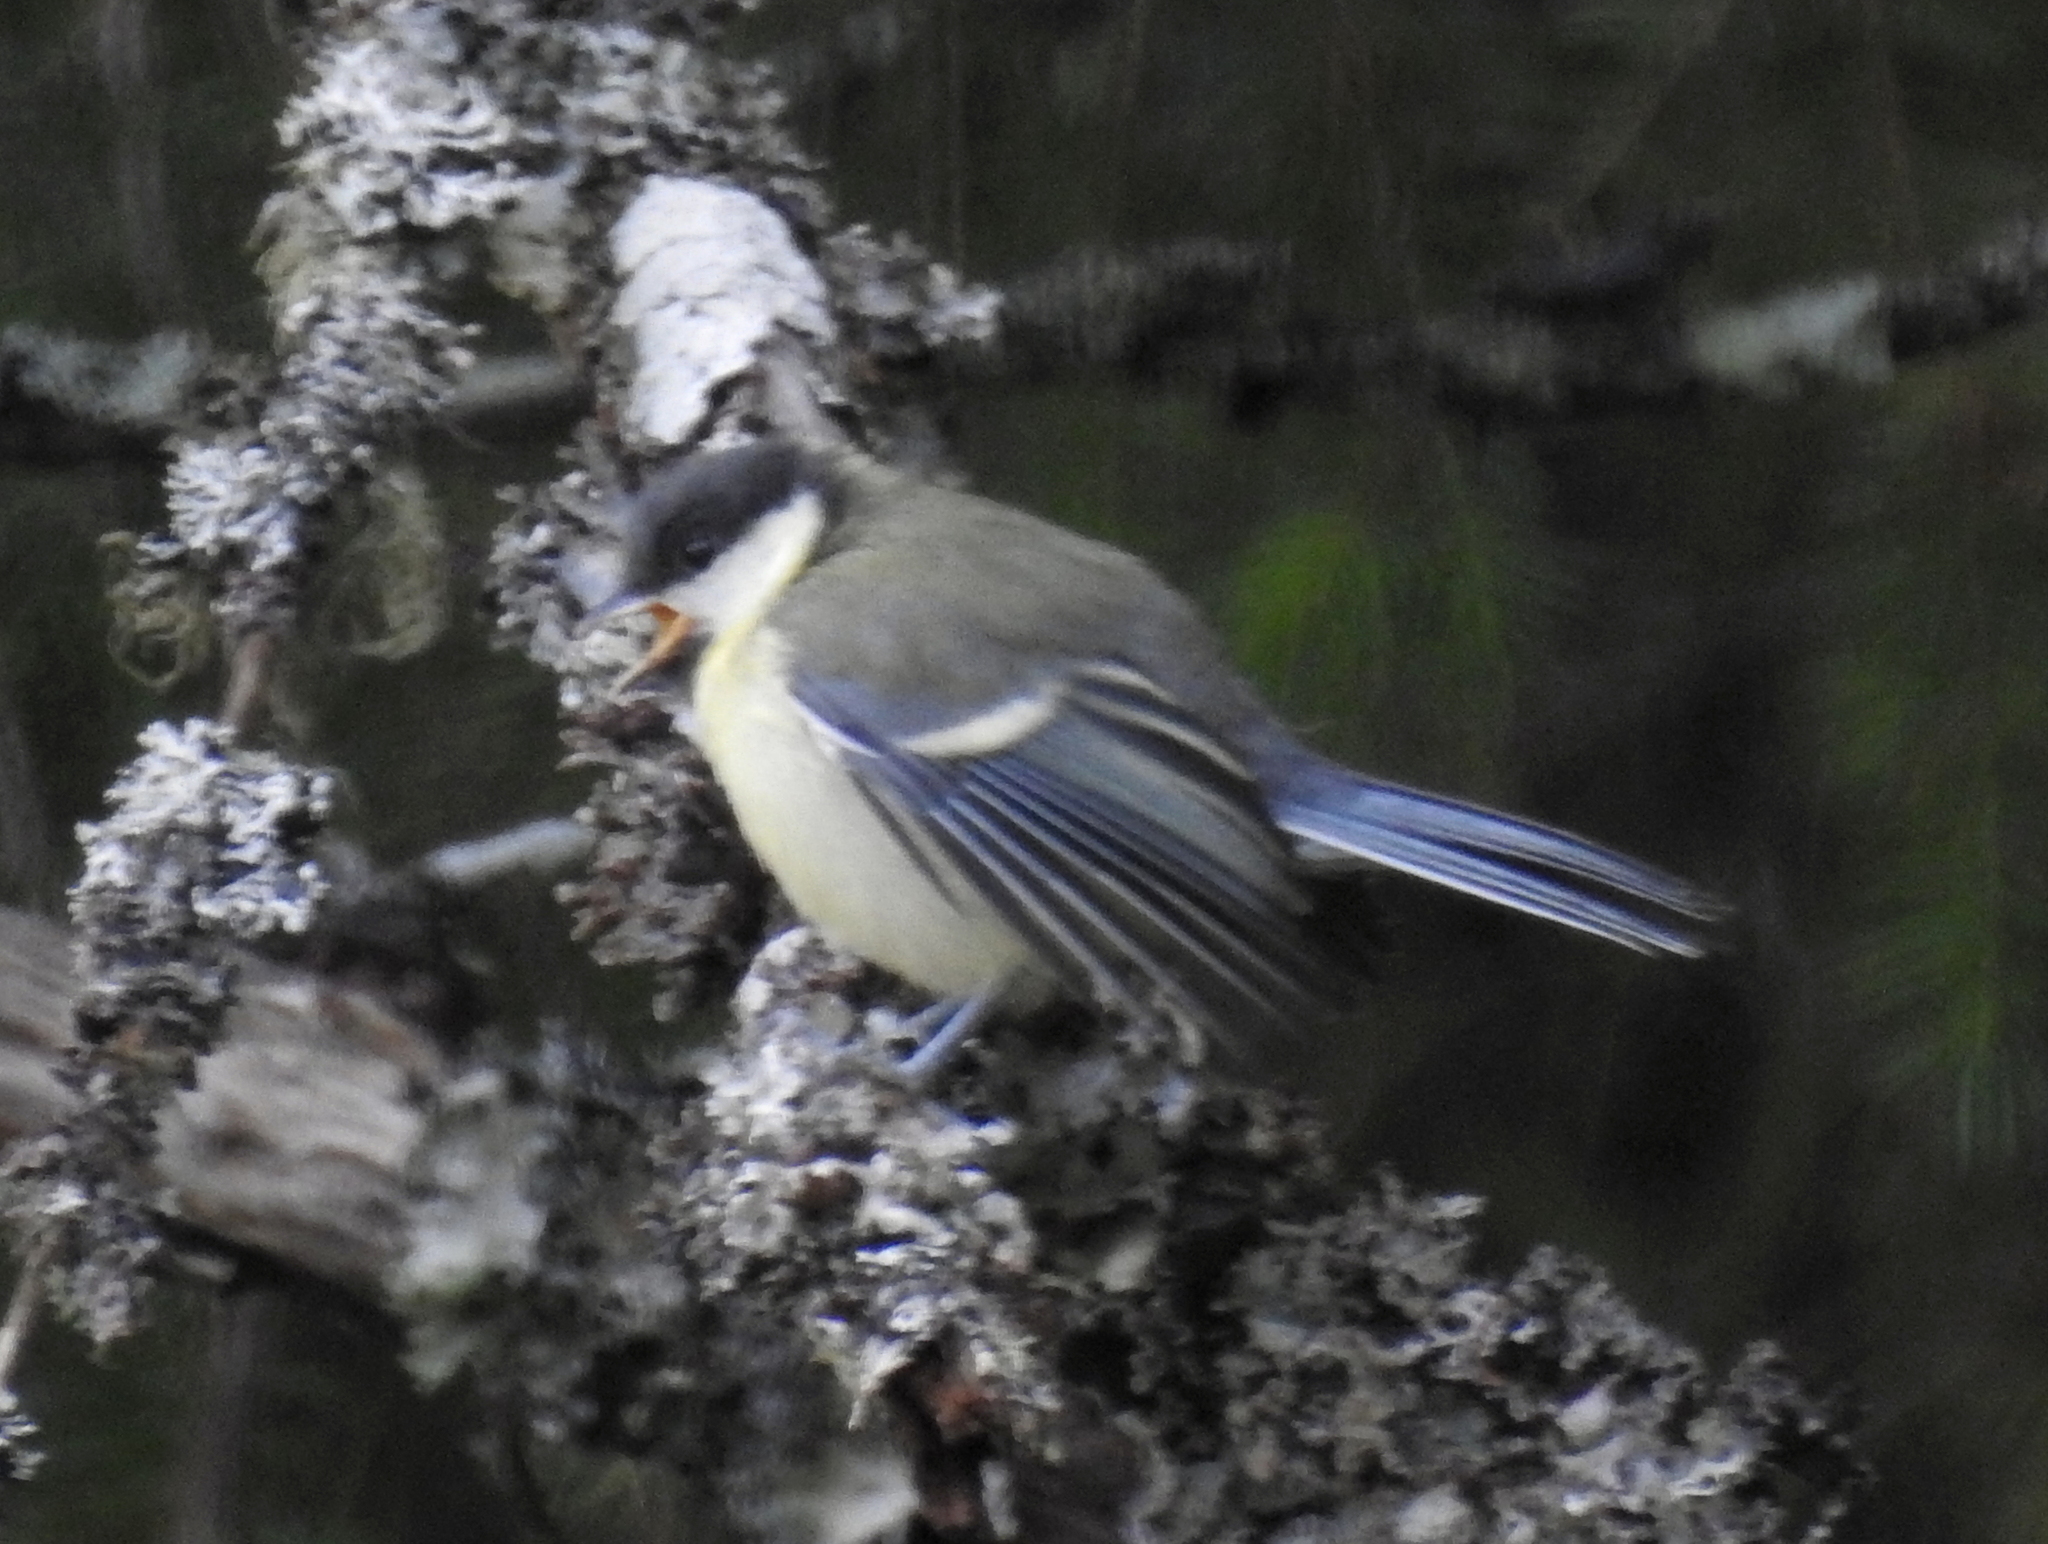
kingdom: Animalia
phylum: Chordata
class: Aves
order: Passeriformes
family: Paridae
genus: Parus
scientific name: Parus major
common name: Great tit
